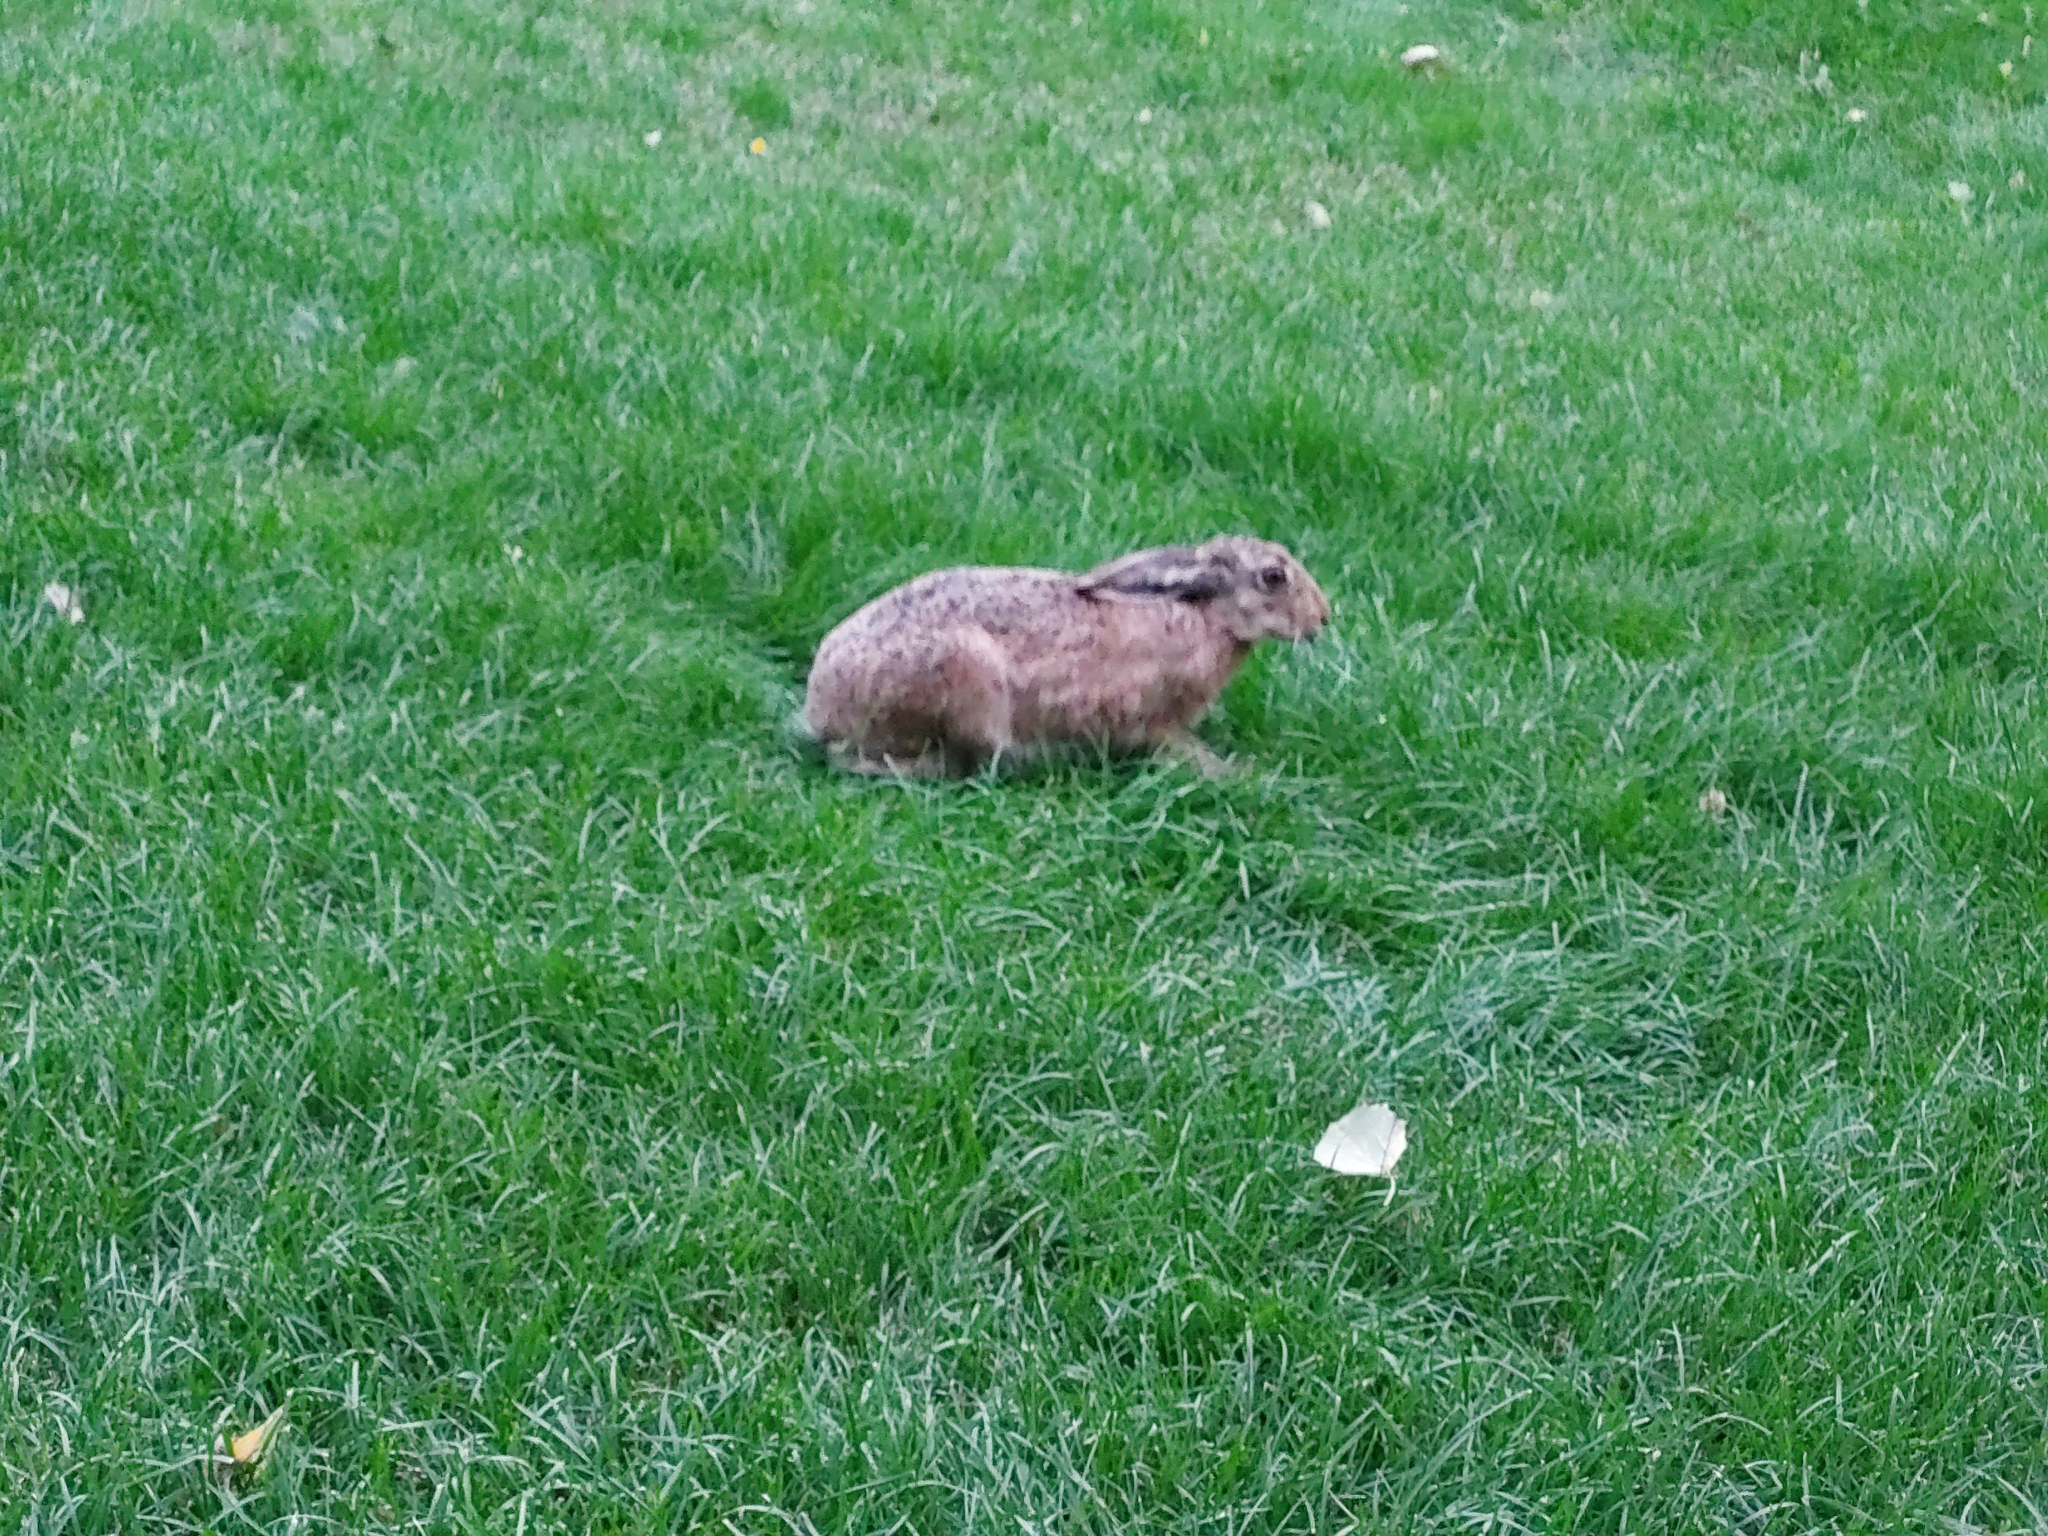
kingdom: Animalia
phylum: Chordata
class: Mammalia
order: Lagomorpha
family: Leporidae
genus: Lepus
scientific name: Lepus europaeus
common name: European hare
